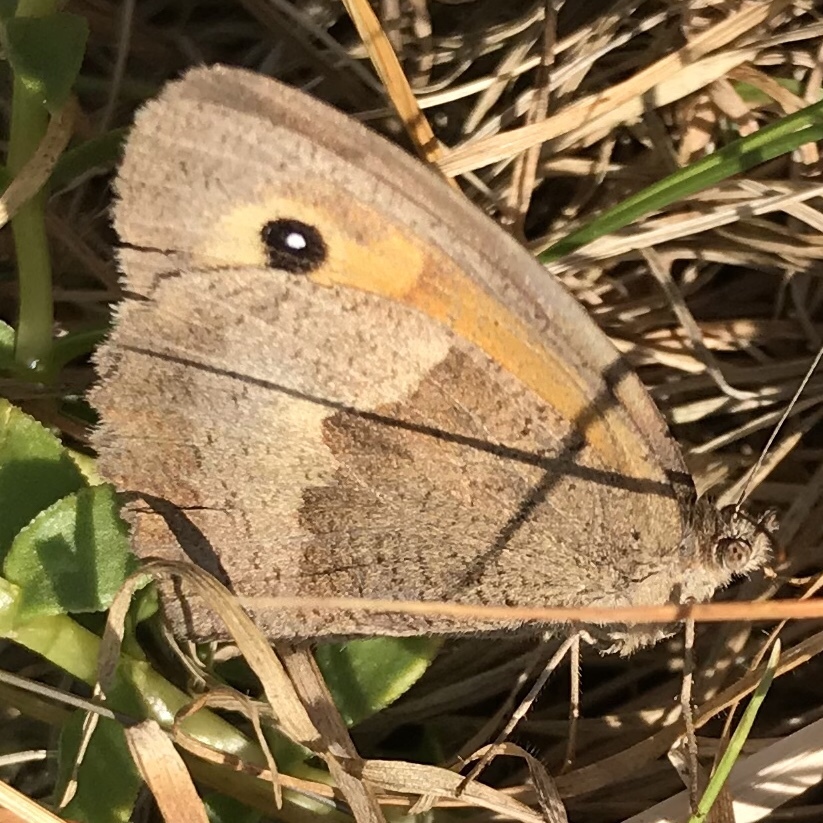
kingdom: Animalia
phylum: Arthropoda
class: Insecta
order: Lepidoptera
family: Nymphalidae
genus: Maniola
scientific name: Maniola jurtina
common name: Meadow brown
